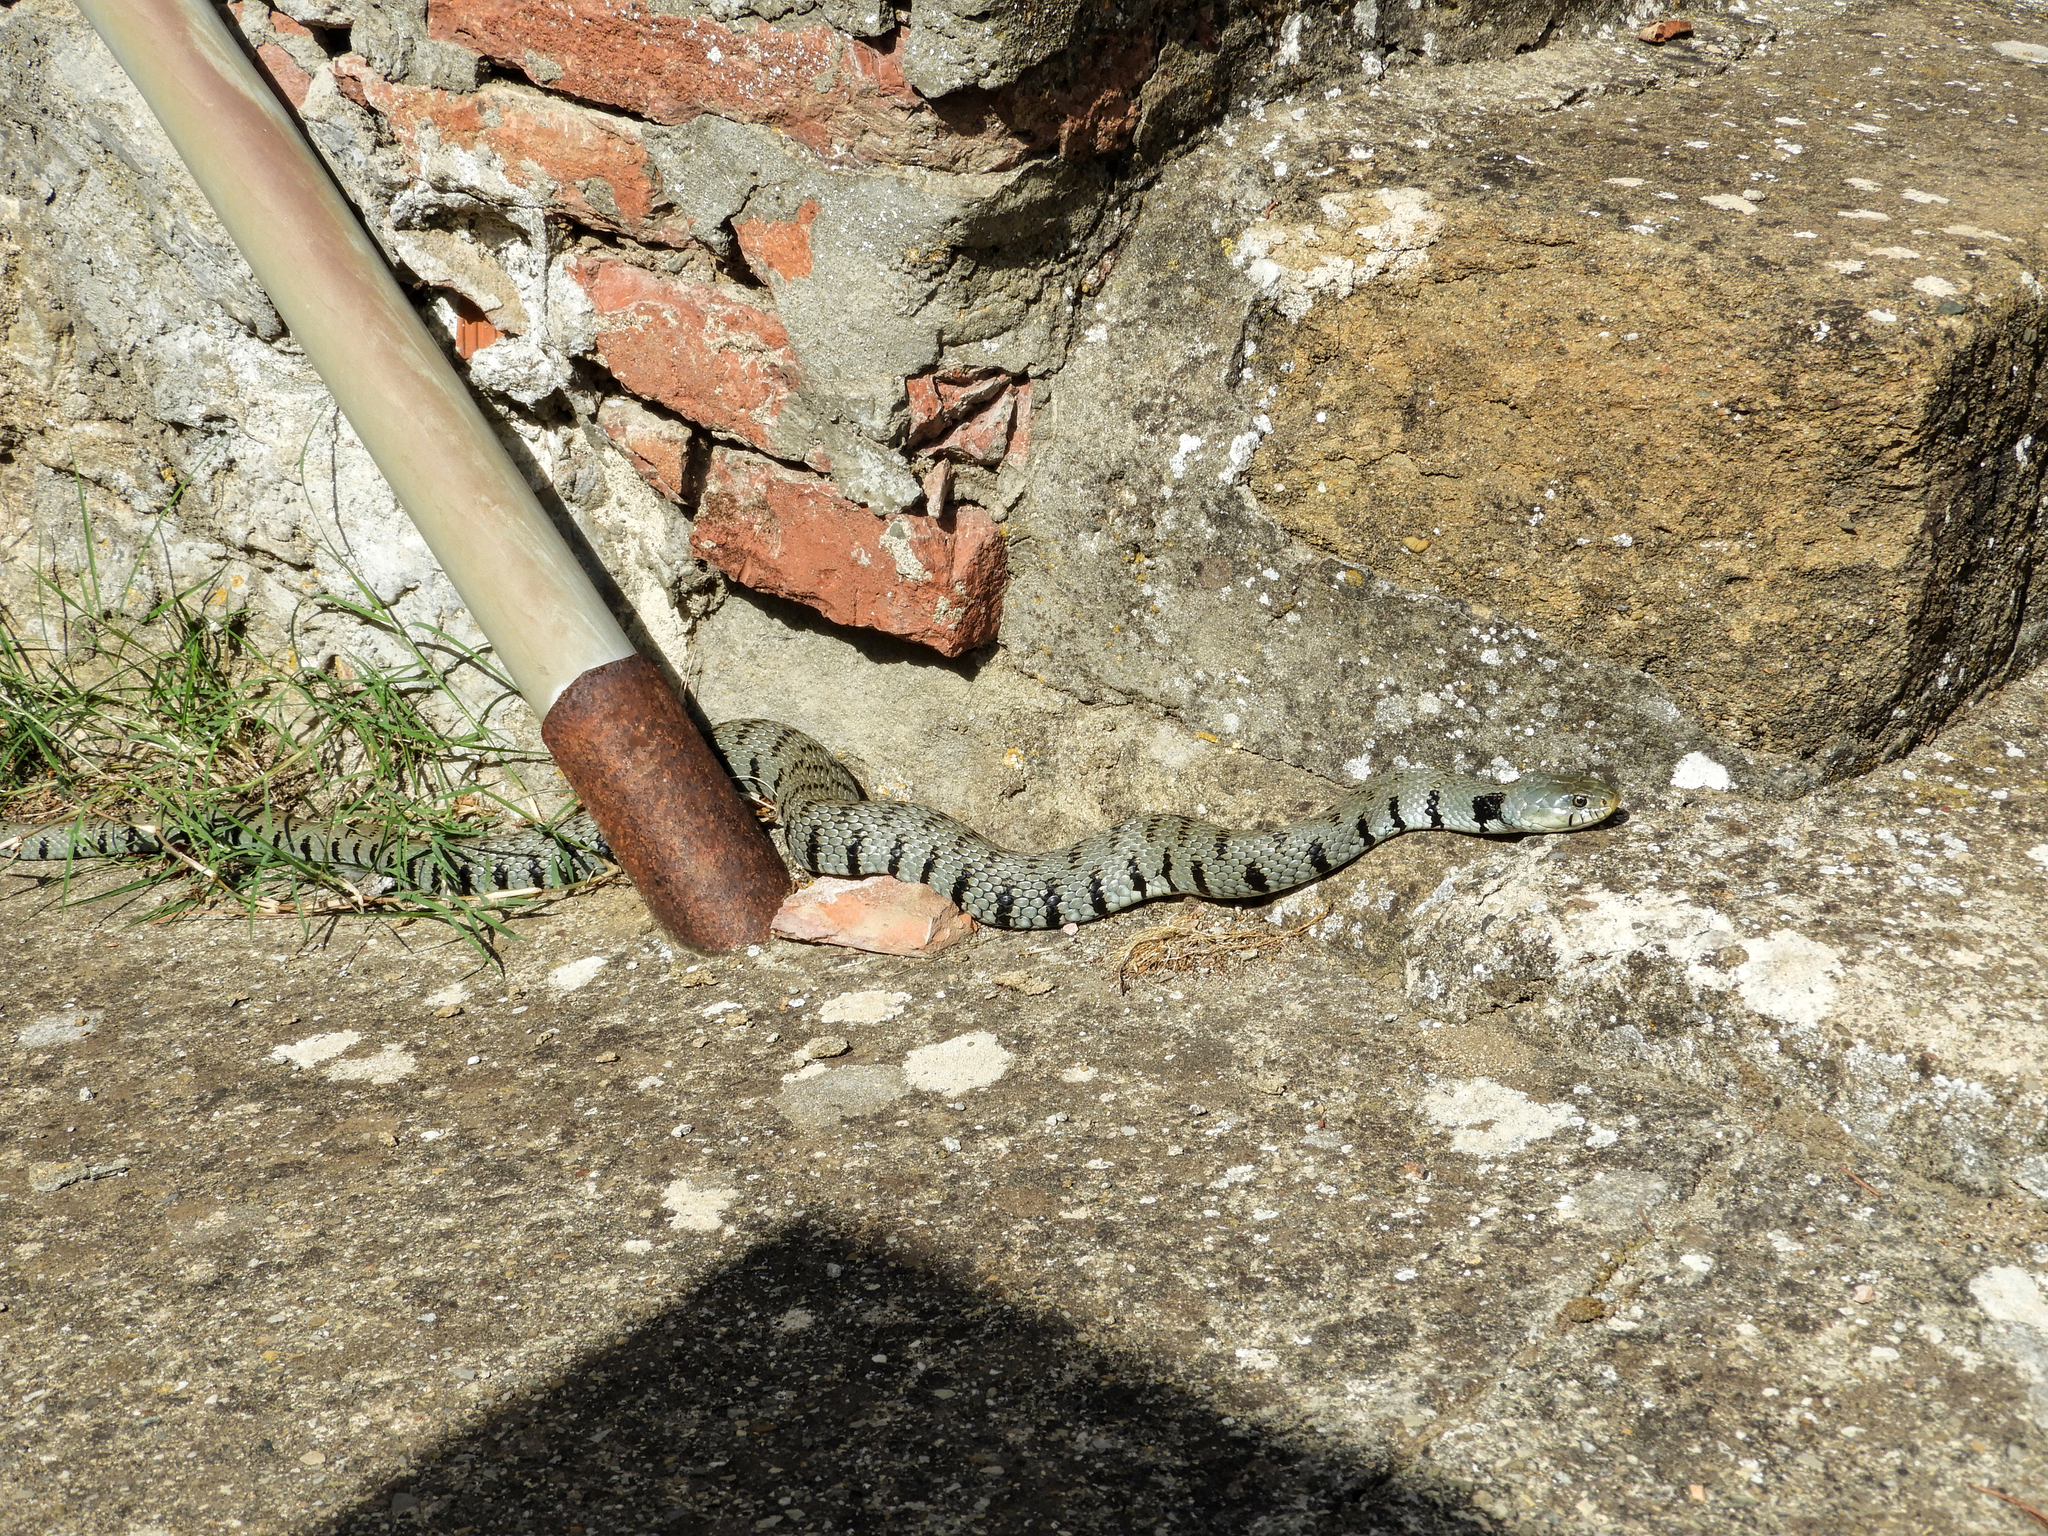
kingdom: Animalia
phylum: Chordata
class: Squamata
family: Colubridae
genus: Natrix
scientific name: Natrix helvetica
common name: Banded grass snake
